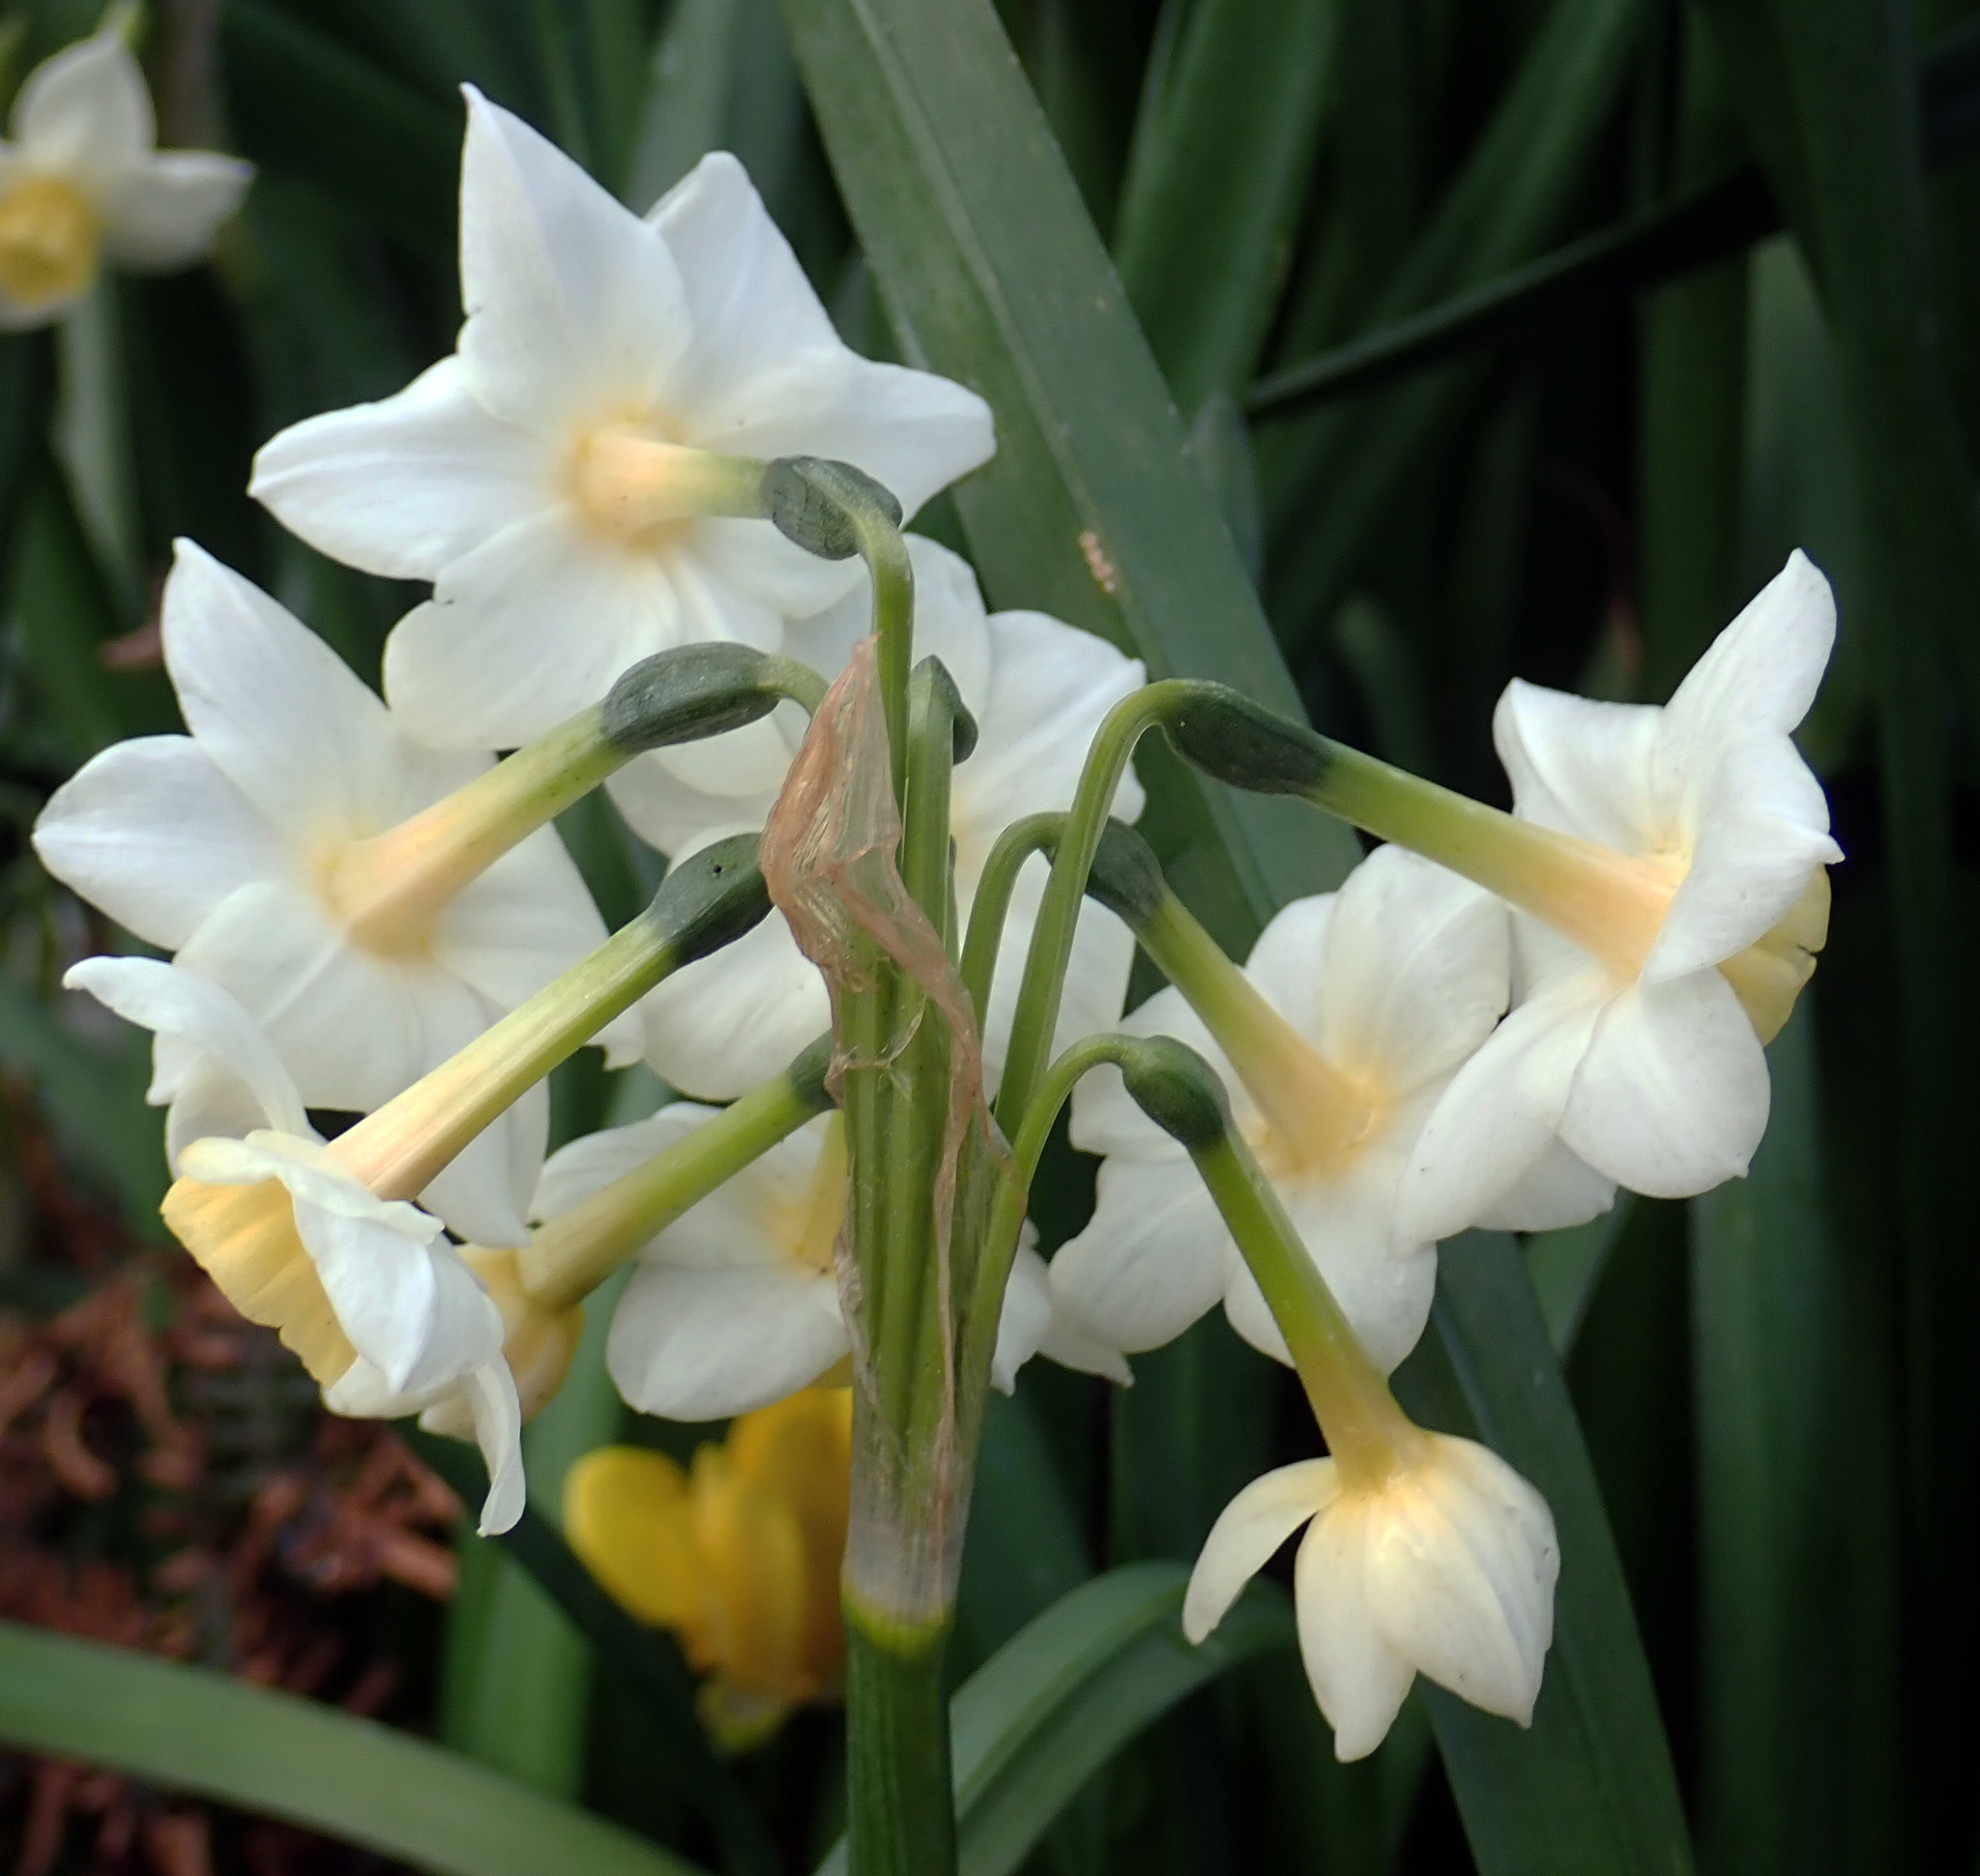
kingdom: Plantae
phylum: Tracheophyta
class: Liliopsida
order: Asparagales
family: Amaryllidaceae
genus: Narcissus
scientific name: Narcissus tazetta
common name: Bunch-flowered daffodil
